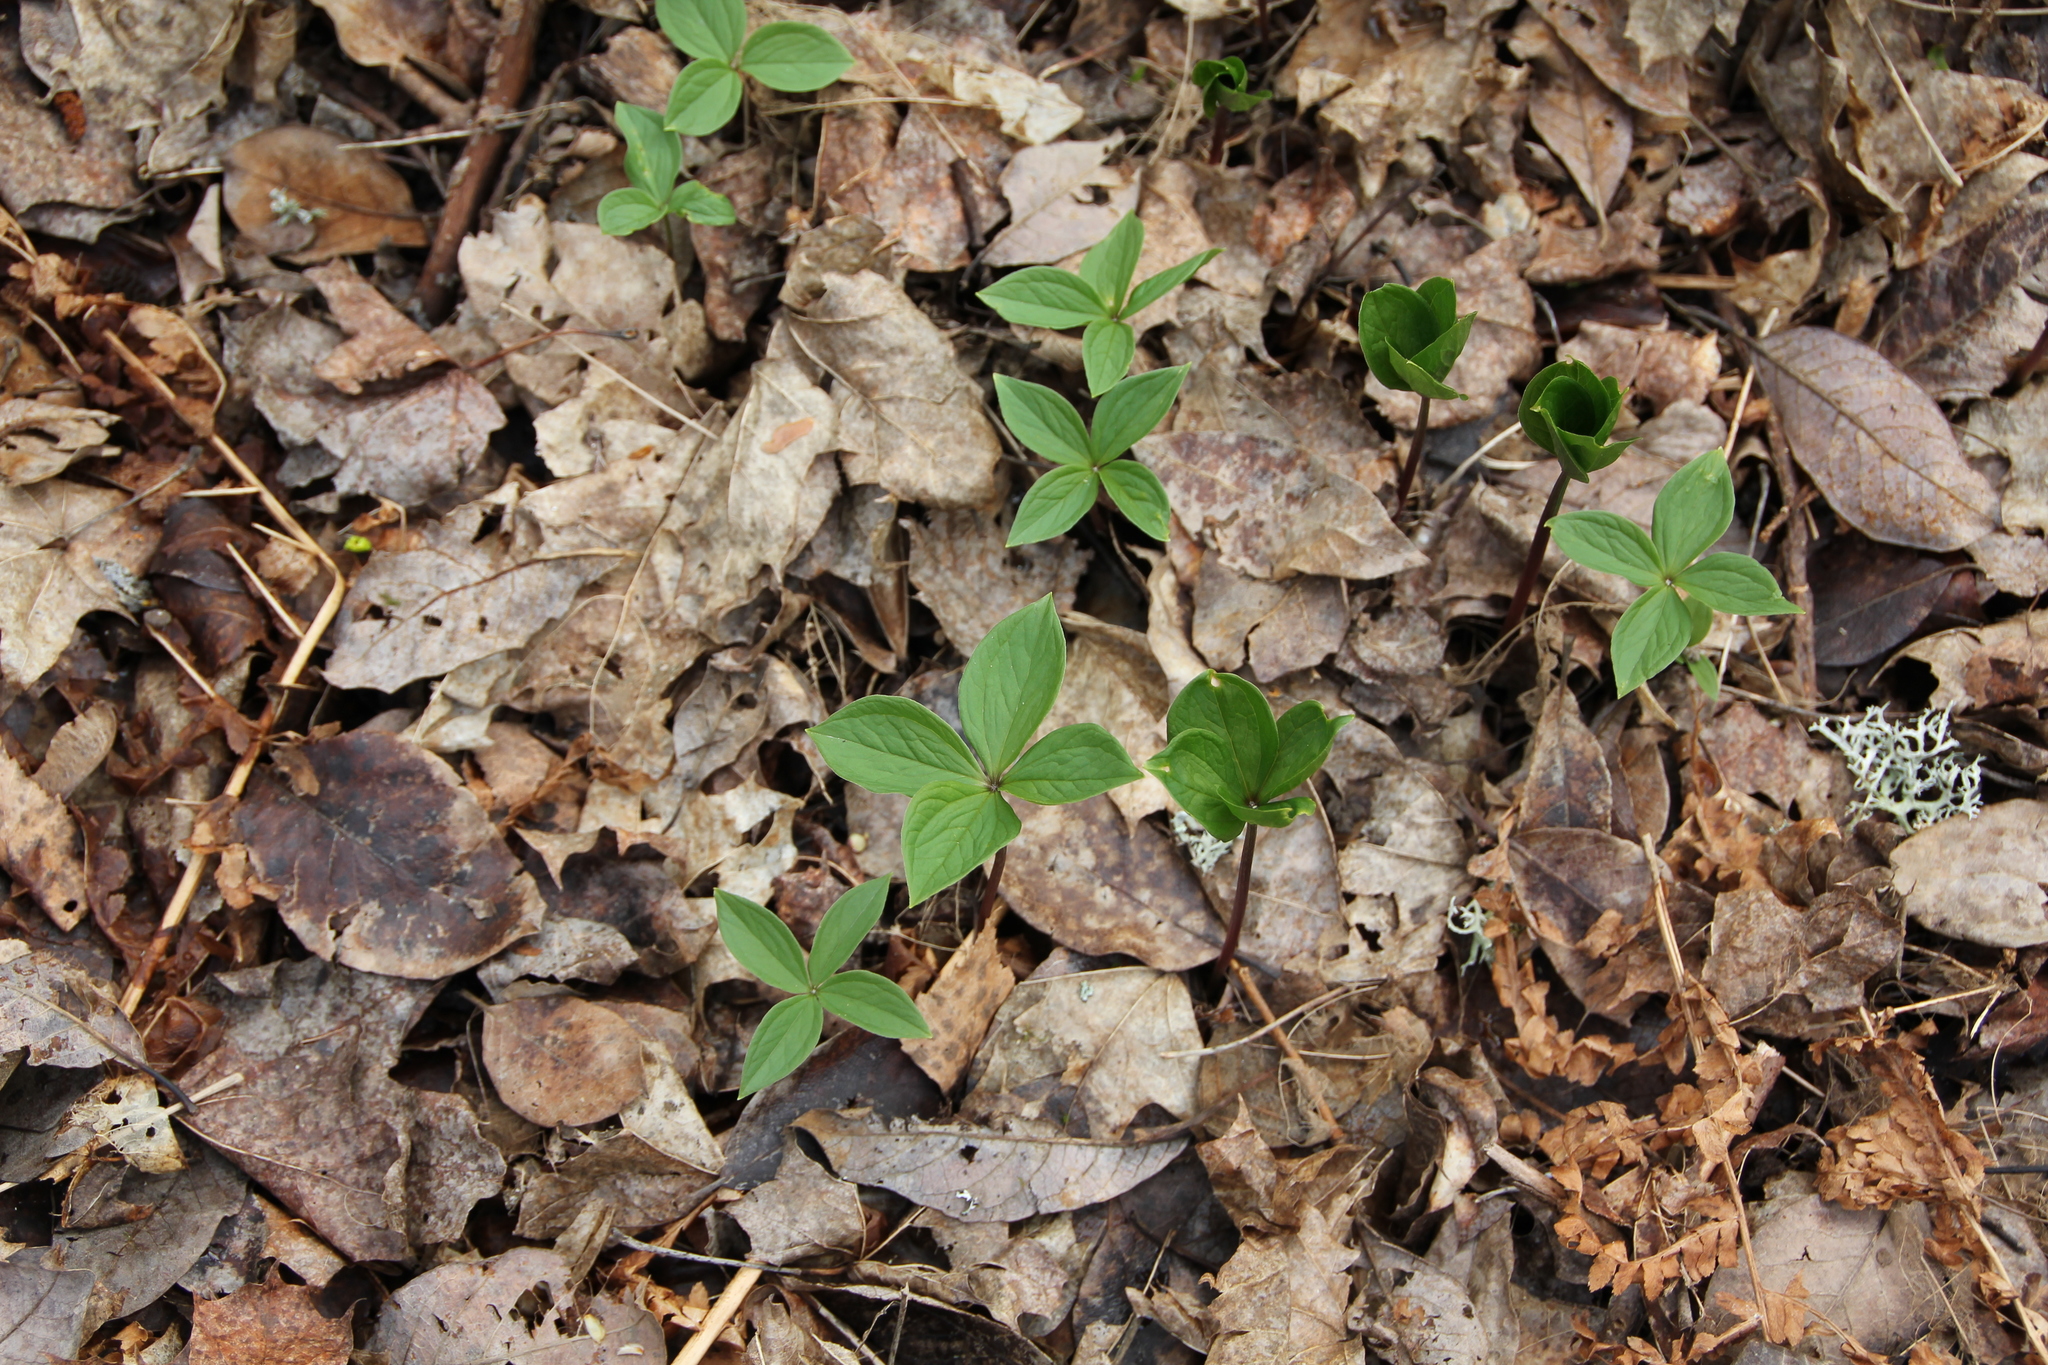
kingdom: Plantae
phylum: Tracheophyta
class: Liliopsida
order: Liliales
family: Melanthiaceae
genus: Paris
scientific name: Paris quadrifolia
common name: Herb-paris
